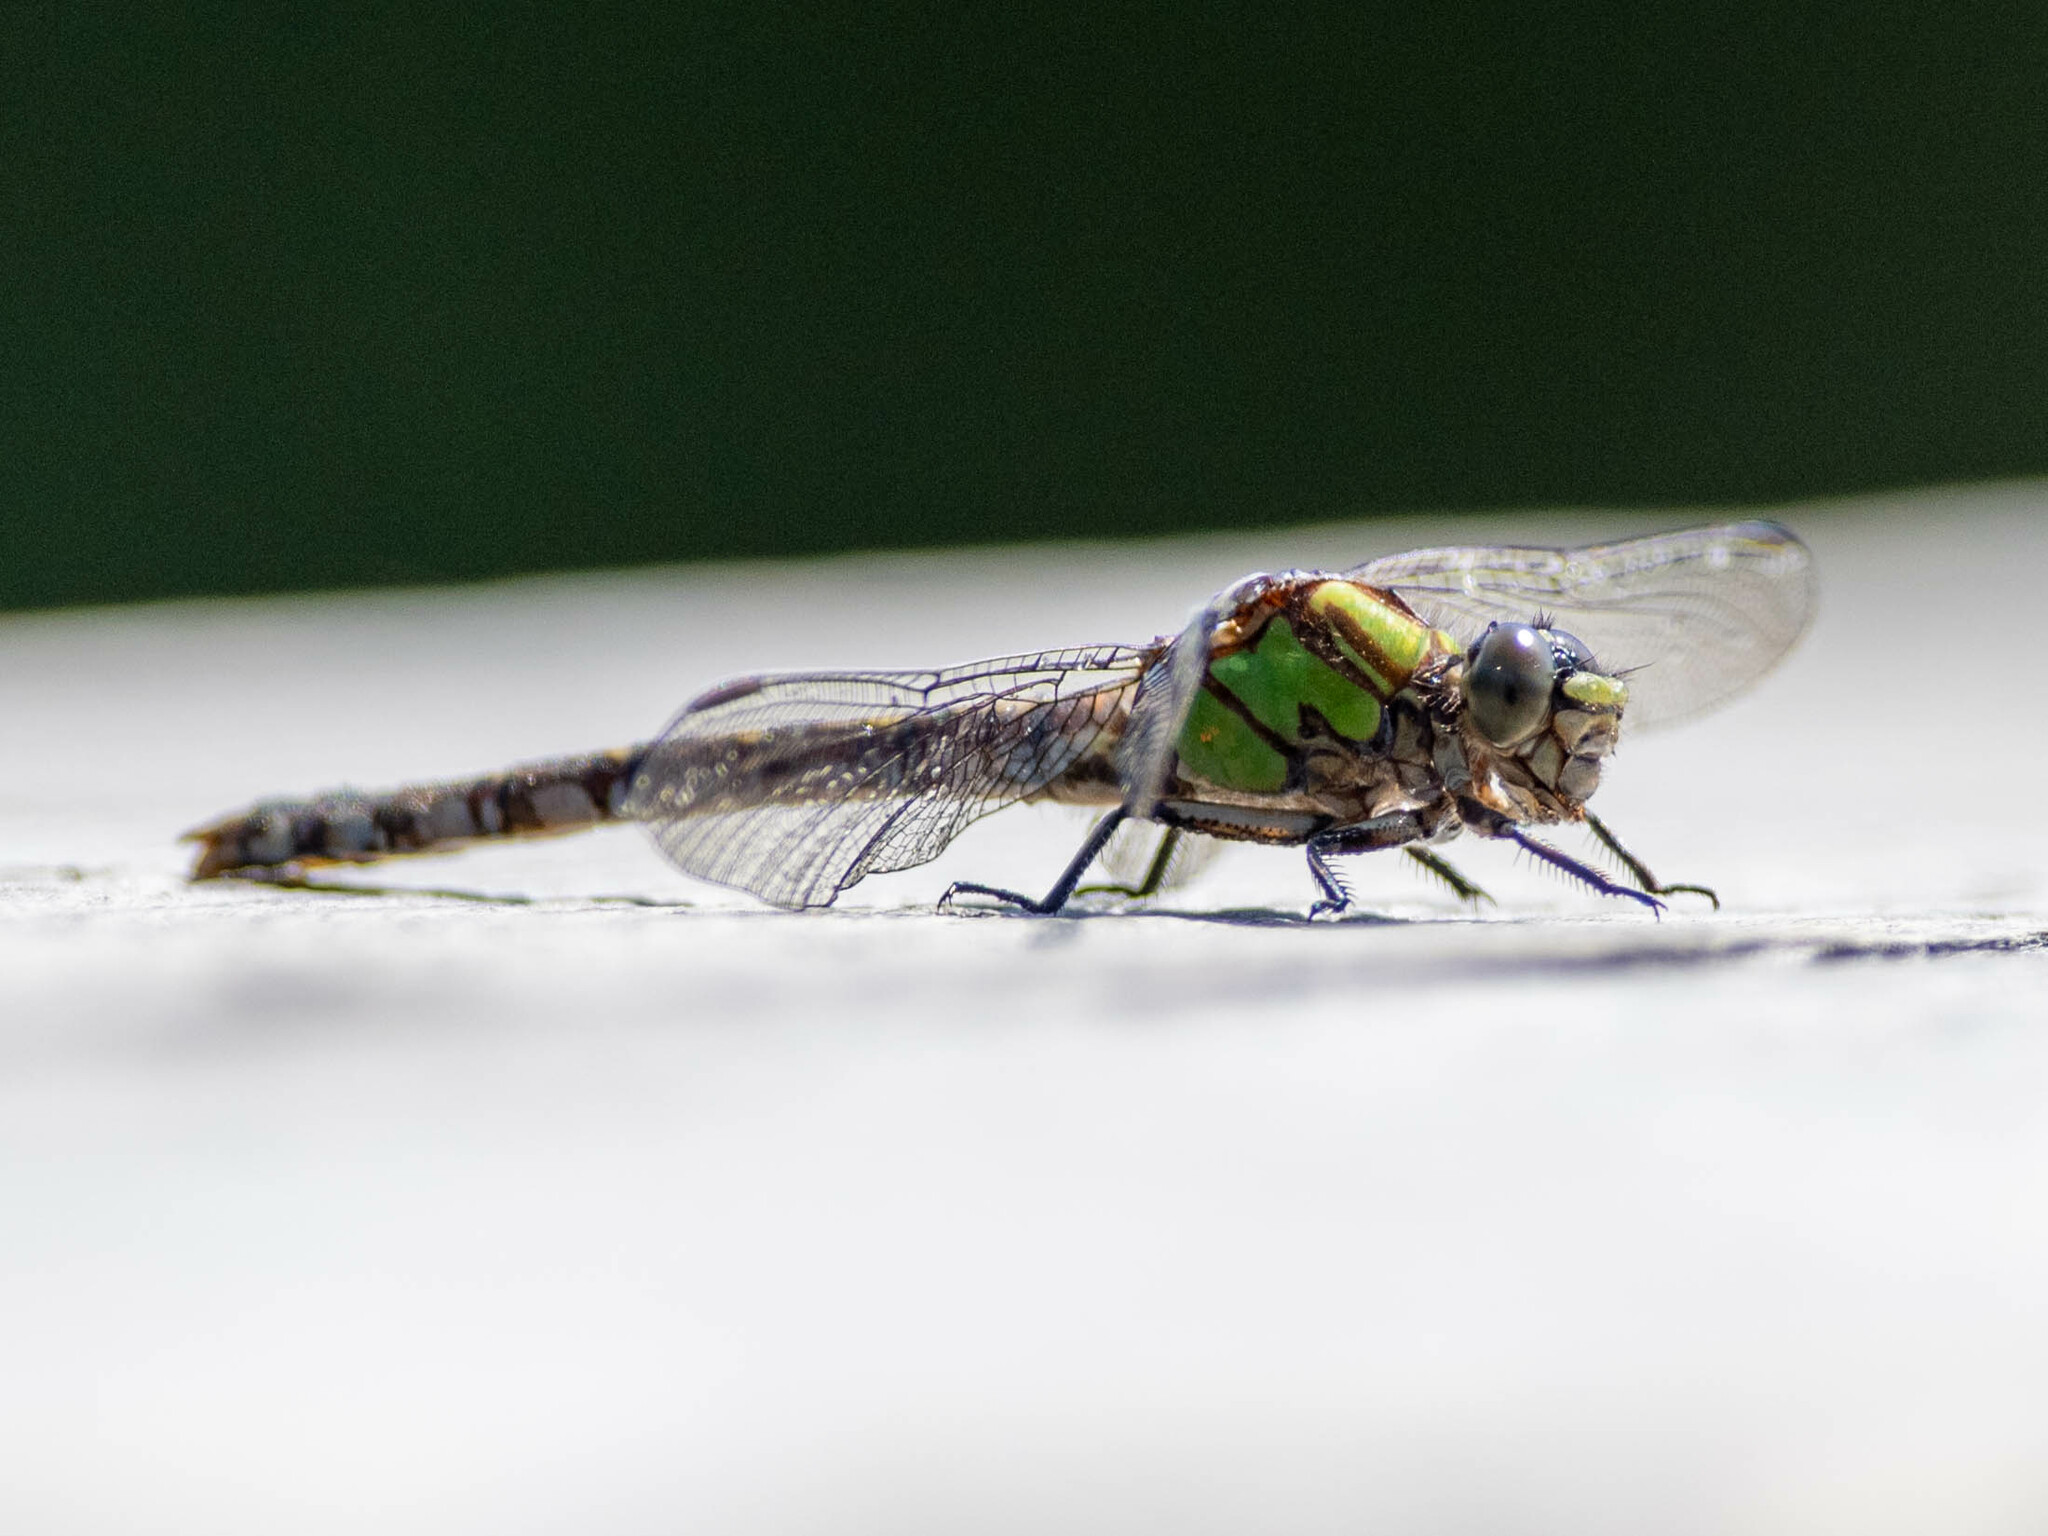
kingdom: Animalia
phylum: Arthropoda
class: Insecta
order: Odonata
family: Gomphidae
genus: Ophiogomphus
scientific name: Ophiogomphus colubrinus
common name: Boreal snaketail
